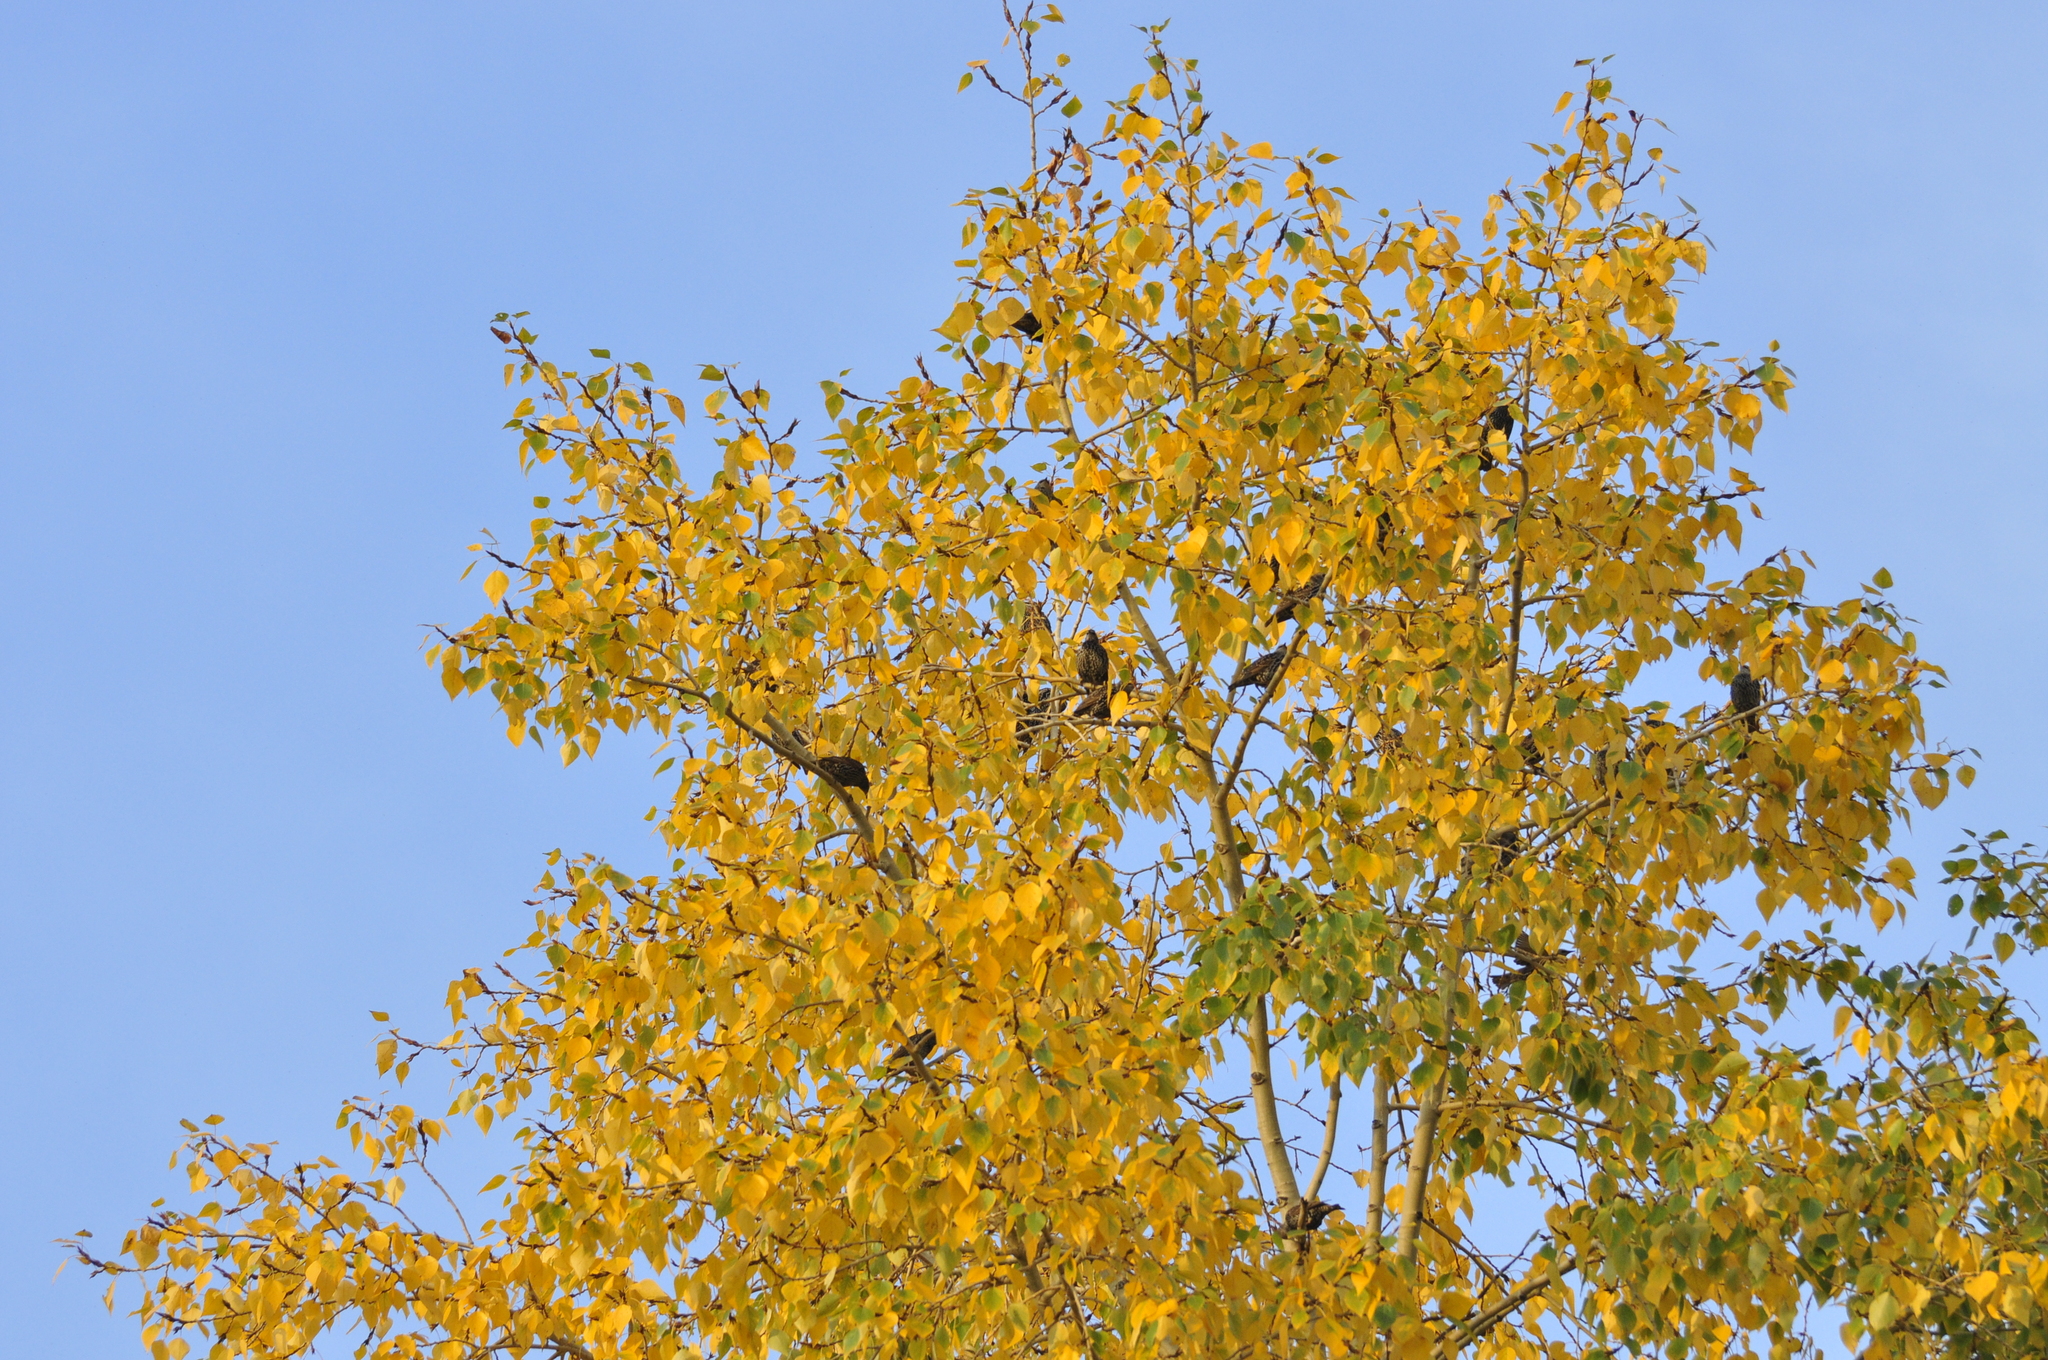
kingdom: Animalia
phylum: Chordata
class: Aves
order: Passeriformes
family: Sturnidae
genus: Sturnus
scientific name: Sturnus vulgaris
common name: Common starling
